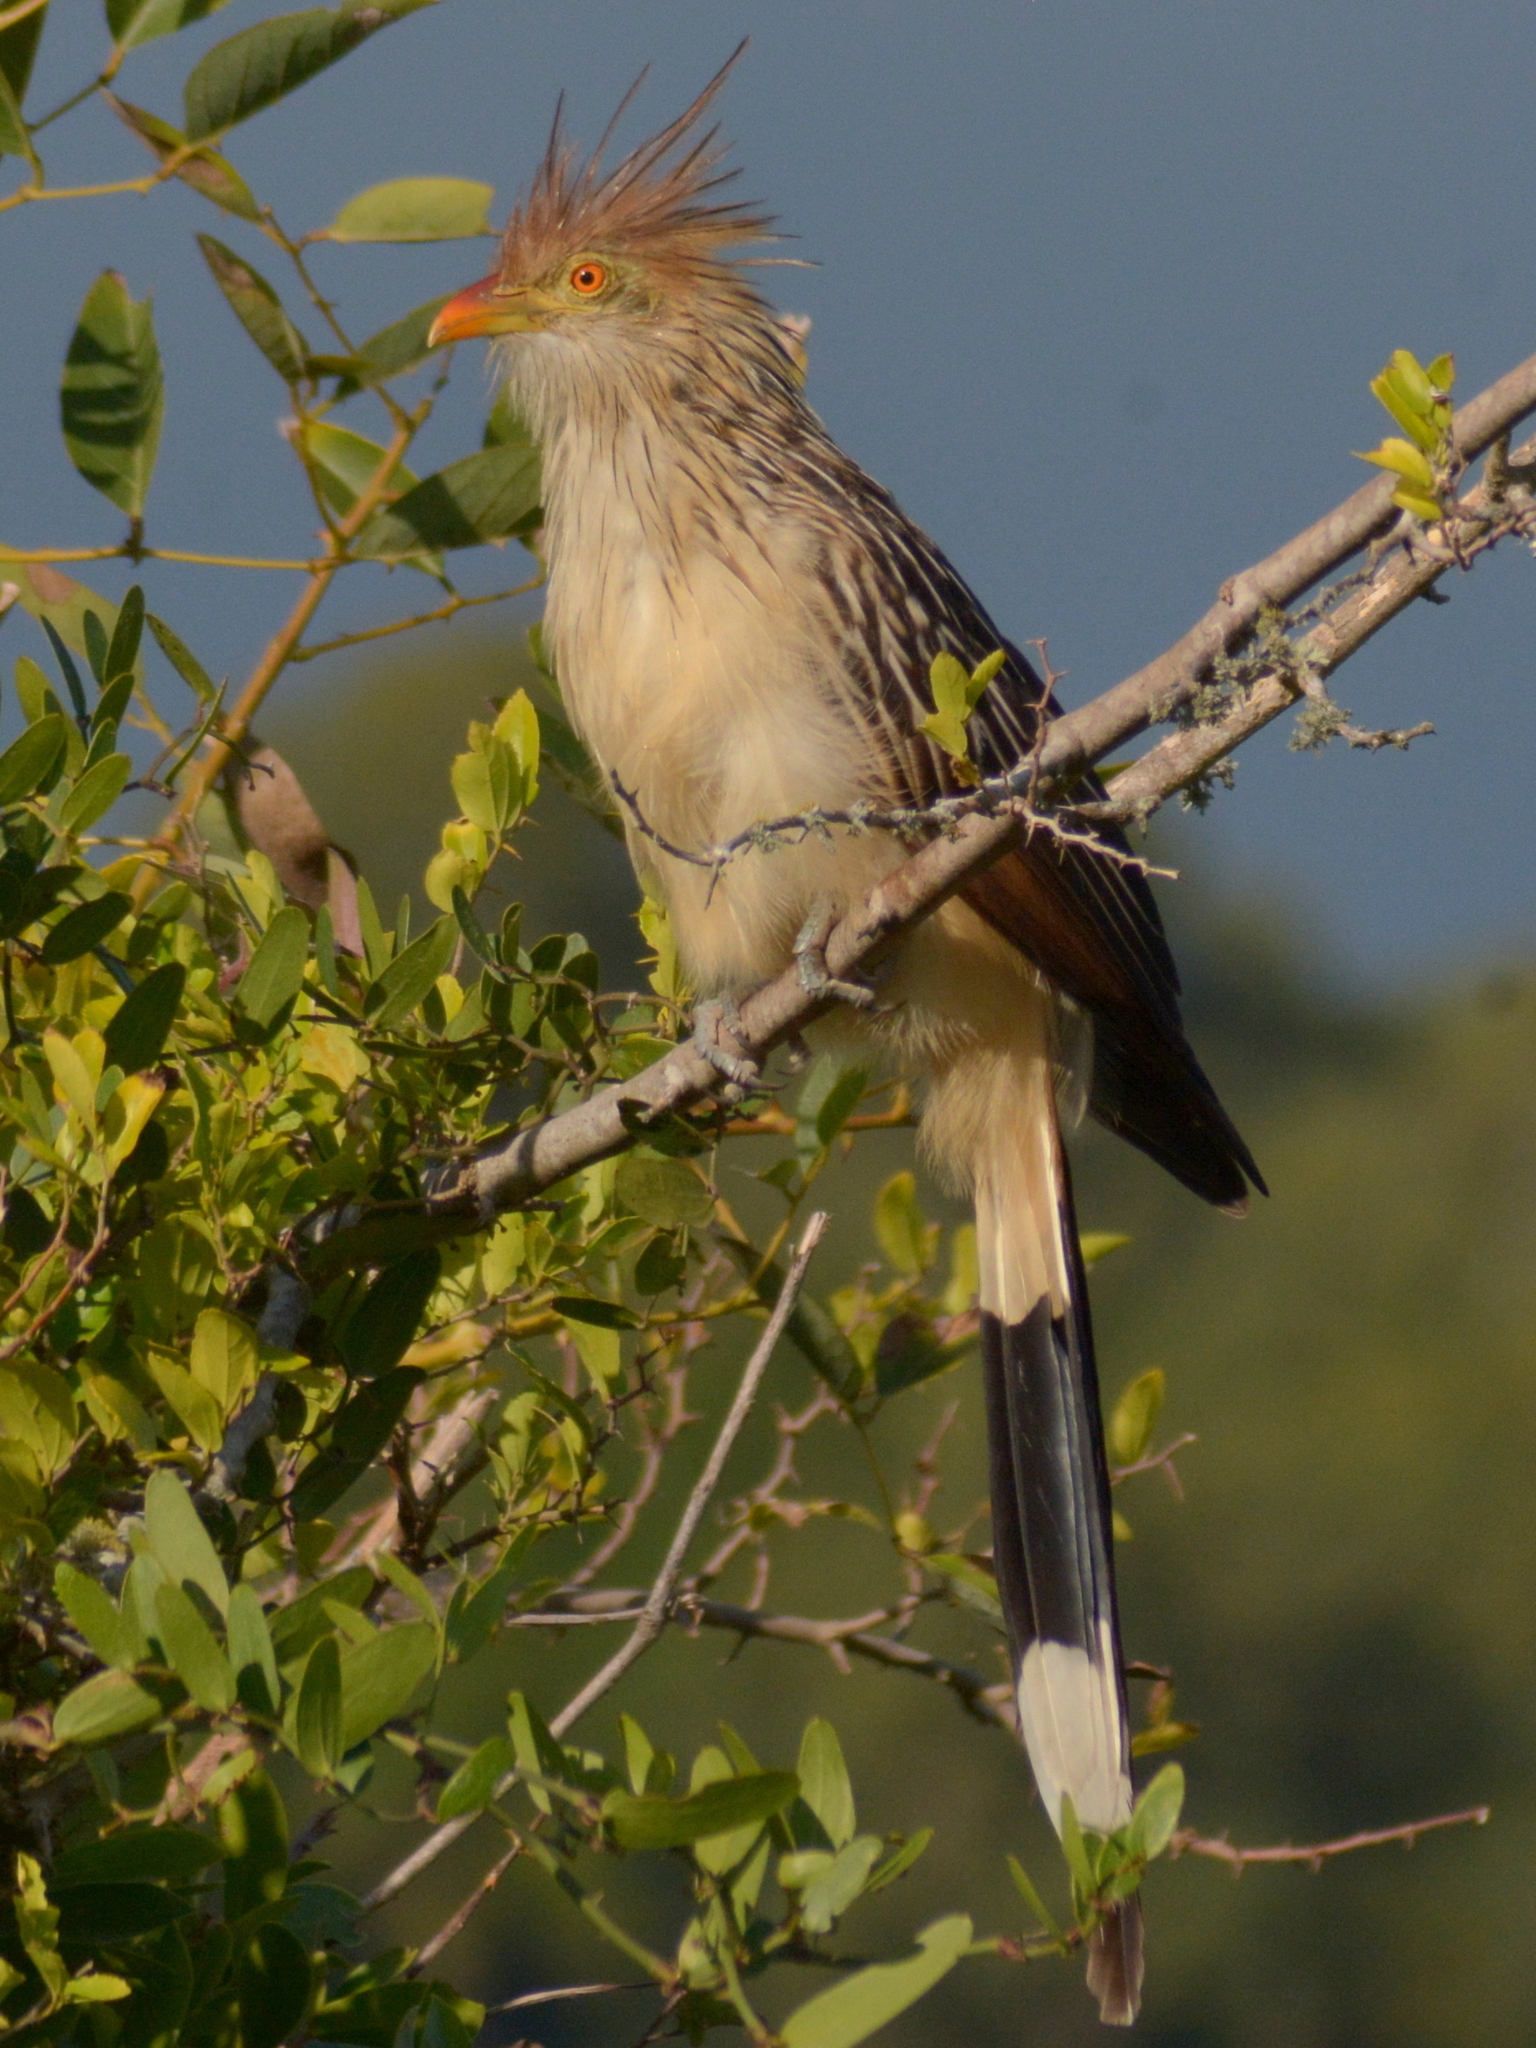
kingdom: Animalia
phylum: Chordata
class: Aves
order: Cuculiformes
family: Cuculidae
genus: Guira
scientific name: Guira guira
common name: Guira cuckoo
